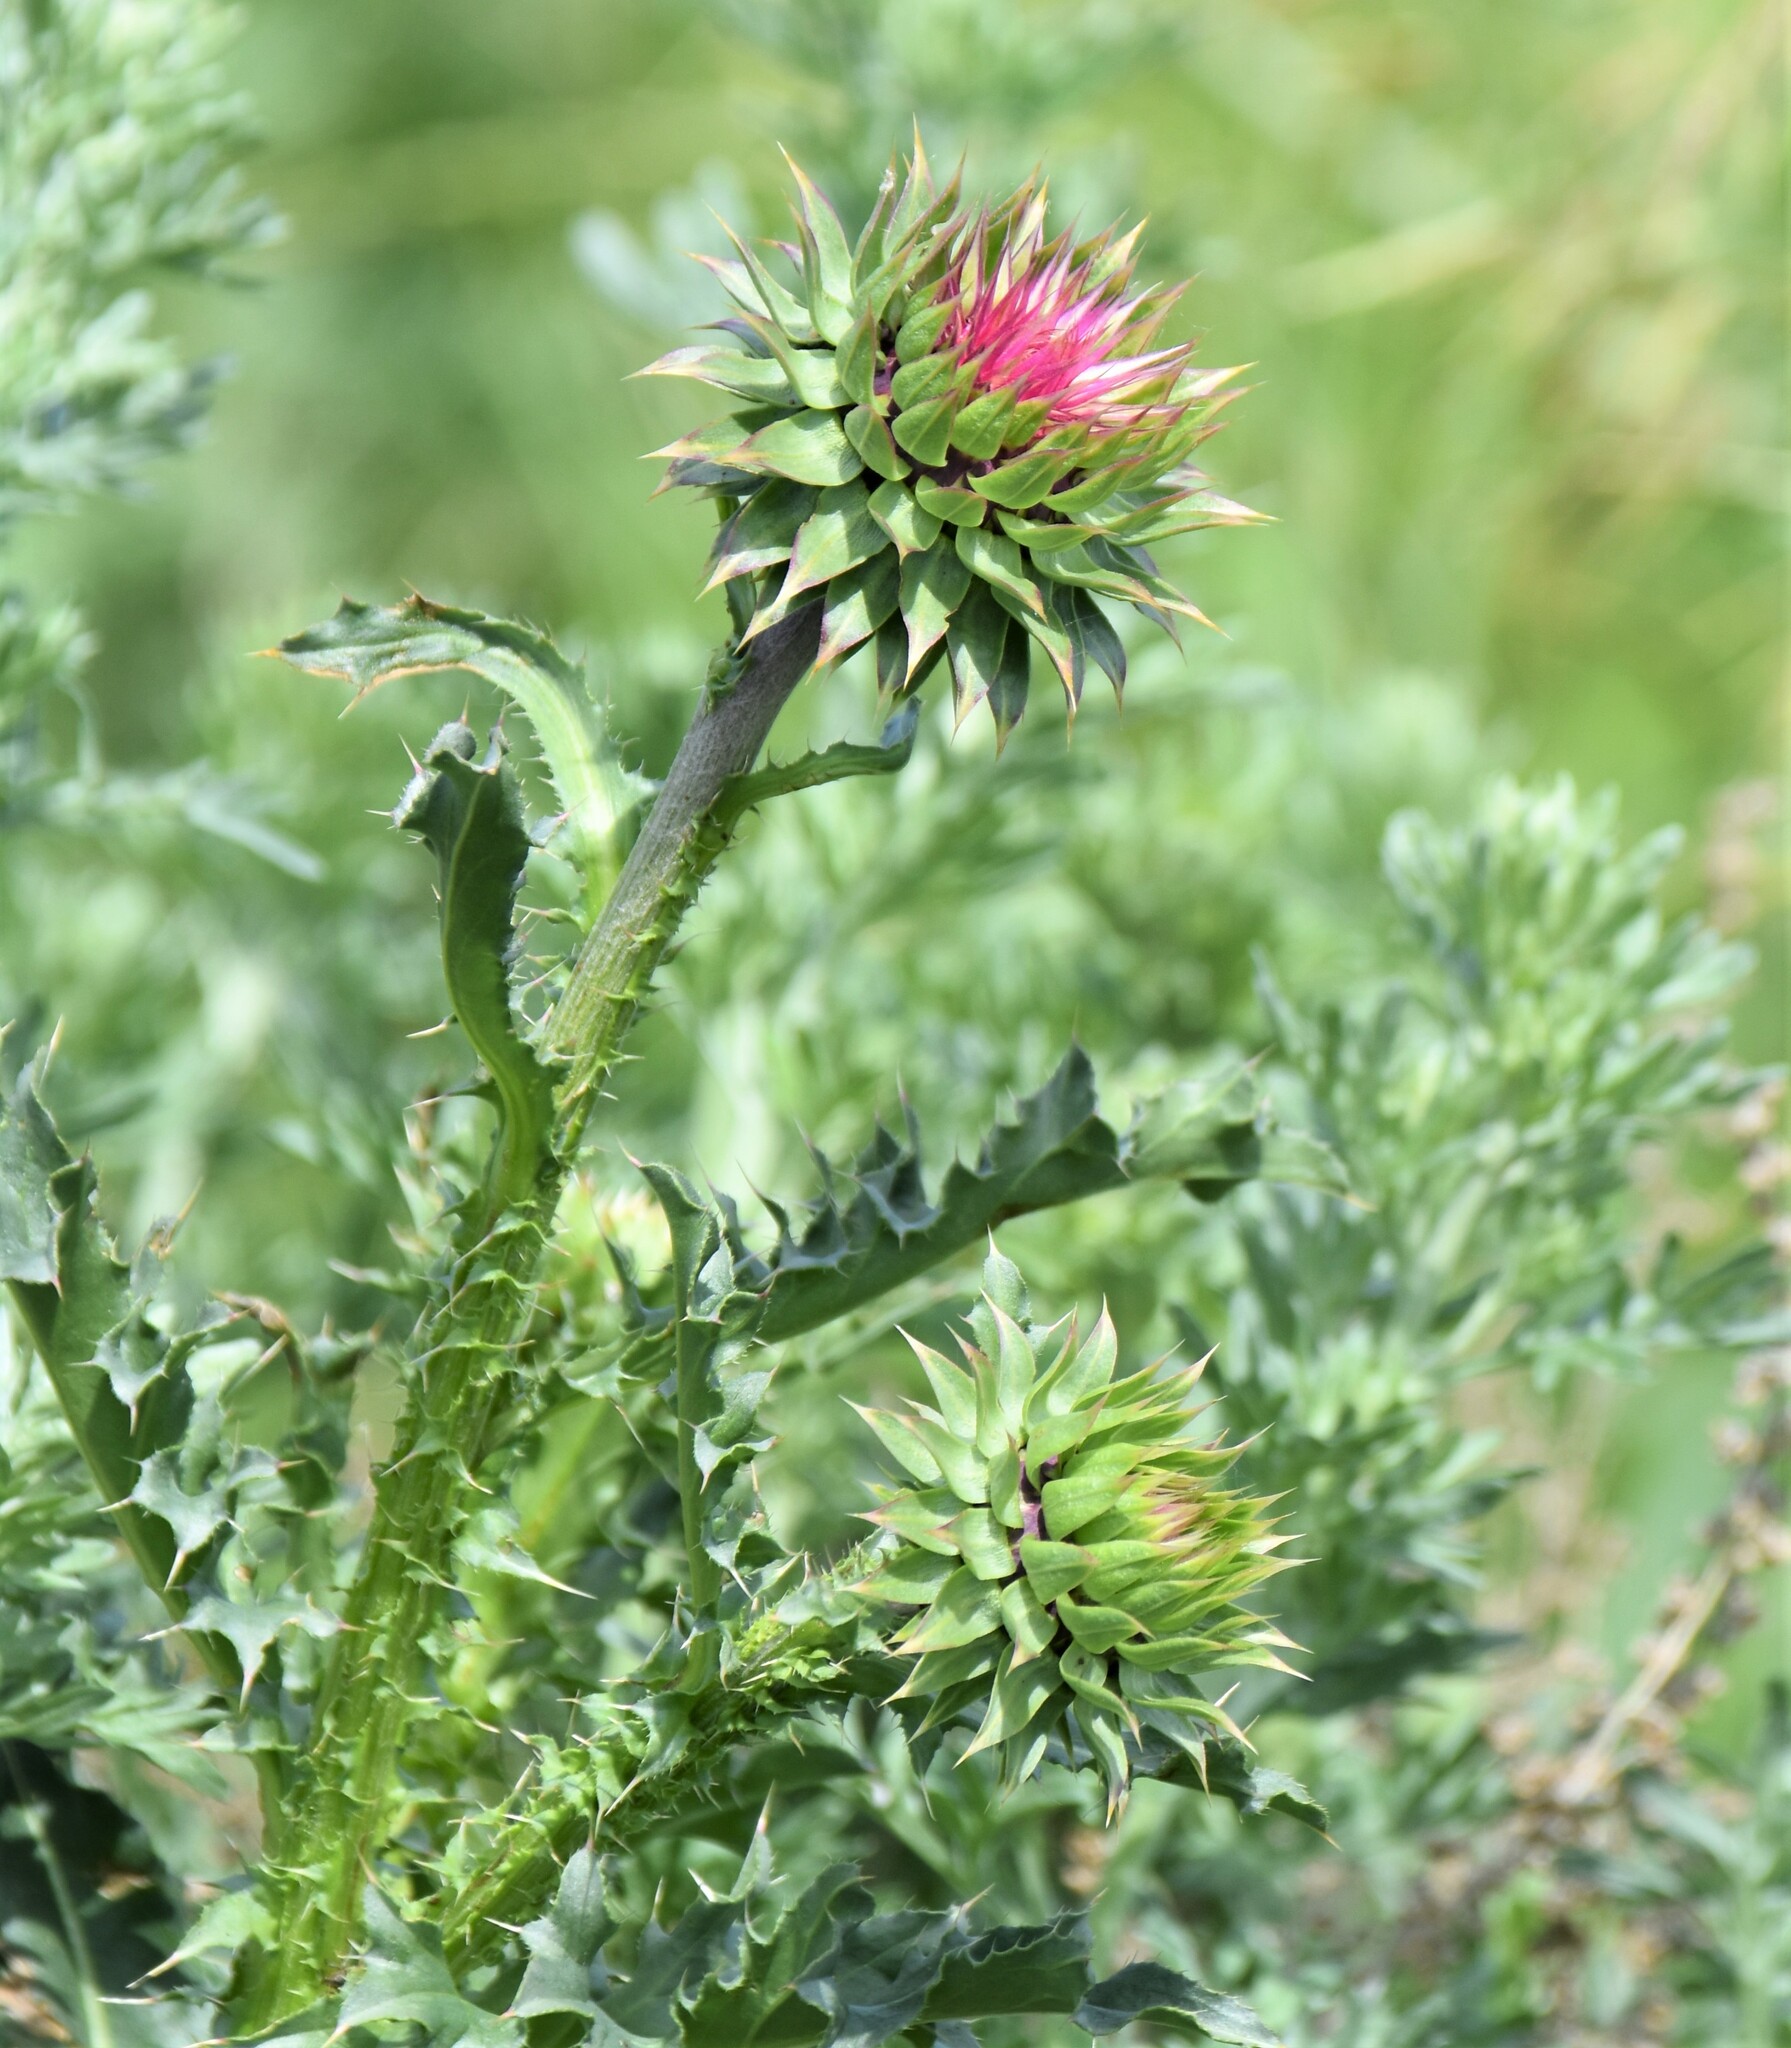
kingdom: Plantae
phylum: Tracheophyta
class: Magnoliopsida
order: Asterales
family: Asteraceae
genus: Carduus
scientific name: Carduus nutans
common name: Musk thistle
